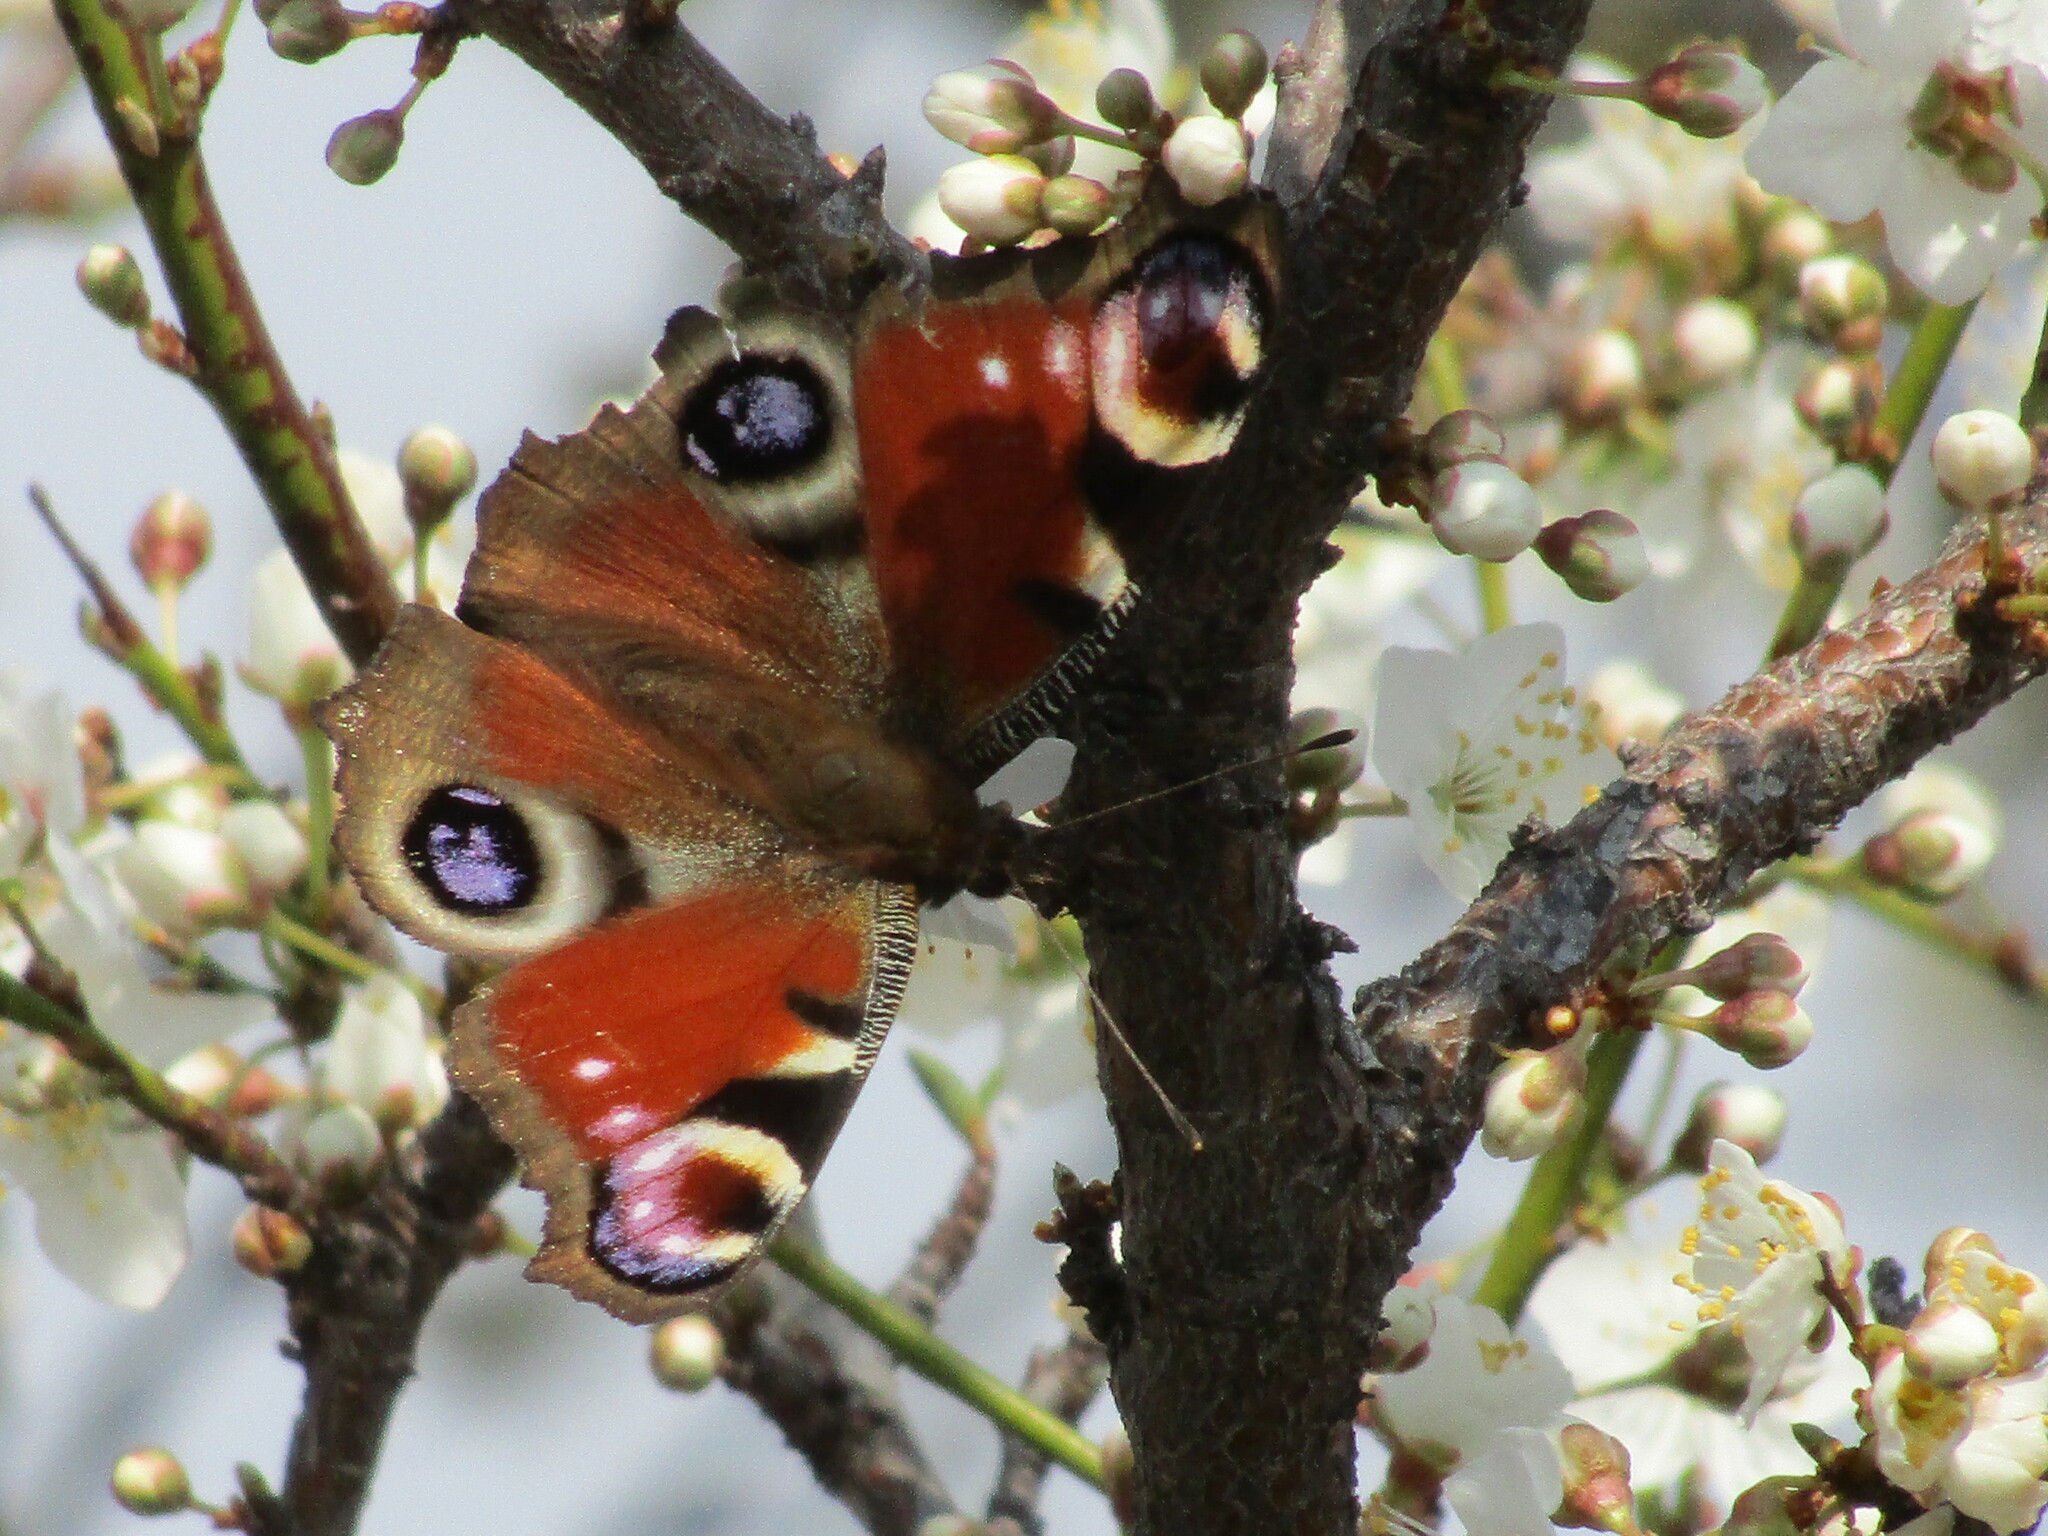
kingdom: Animalia
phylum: Arthropoda
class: Insecta
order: Lepidoptera
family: Nymphalidae
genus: Aglais
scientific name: Aglais io
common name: Peacock
